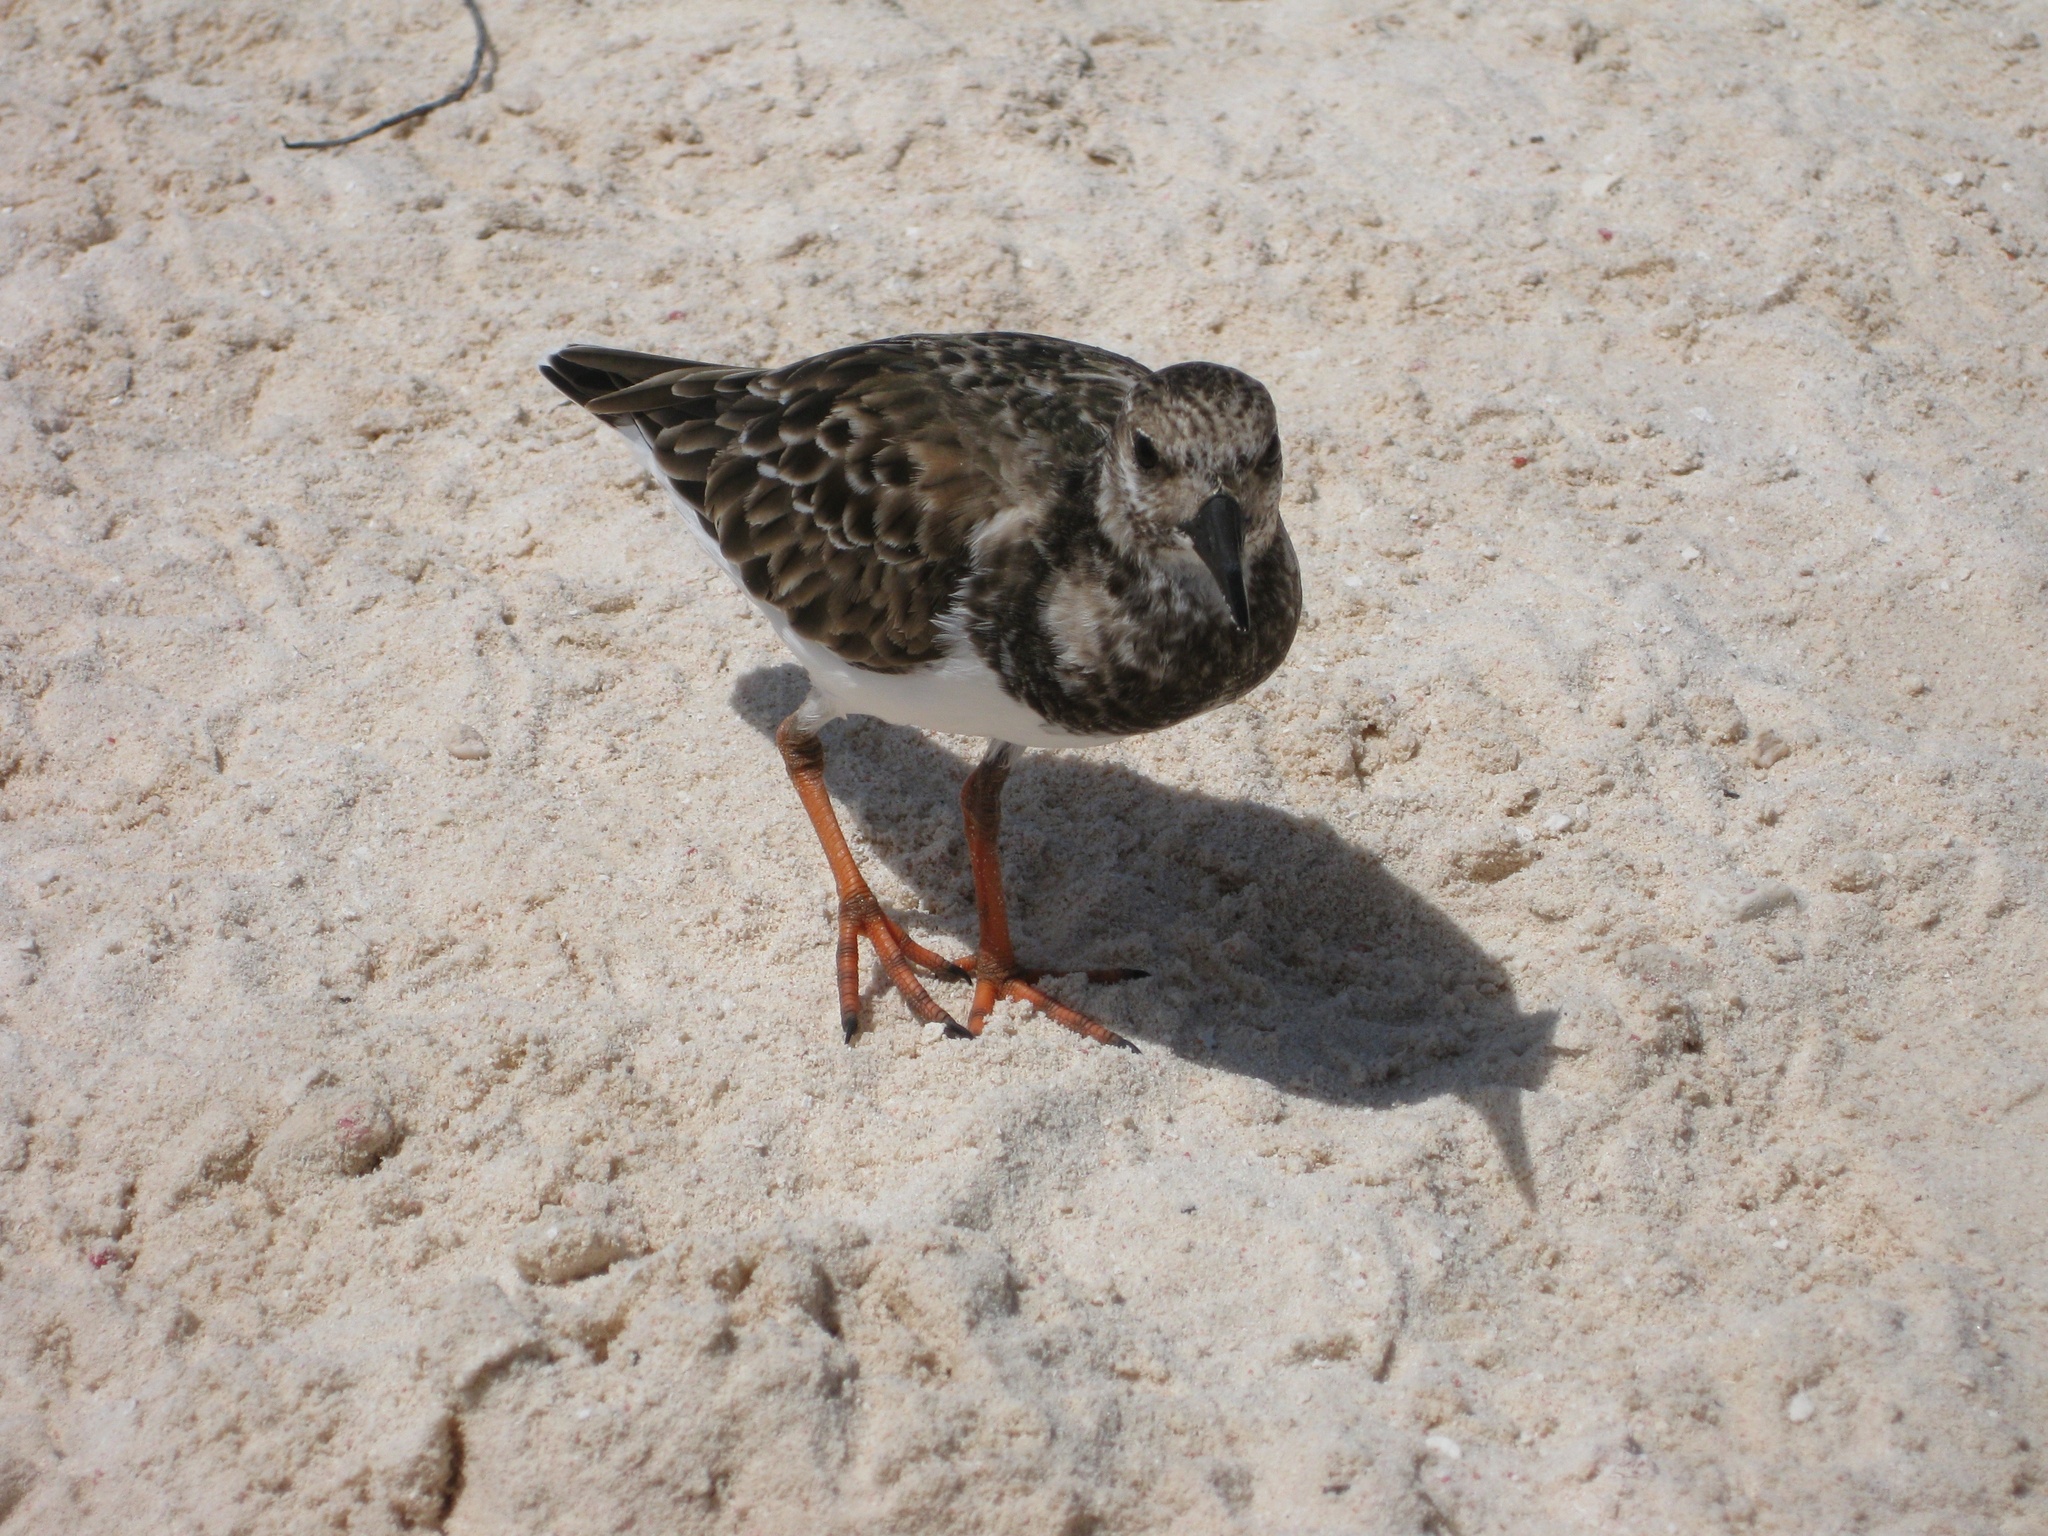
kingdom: Animalia
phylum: Chordata
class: Aves
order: Charadriiformes
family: Scolopacidae
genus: Arenaria
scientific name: Arenaria interpres
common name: Ruddy turnstone
